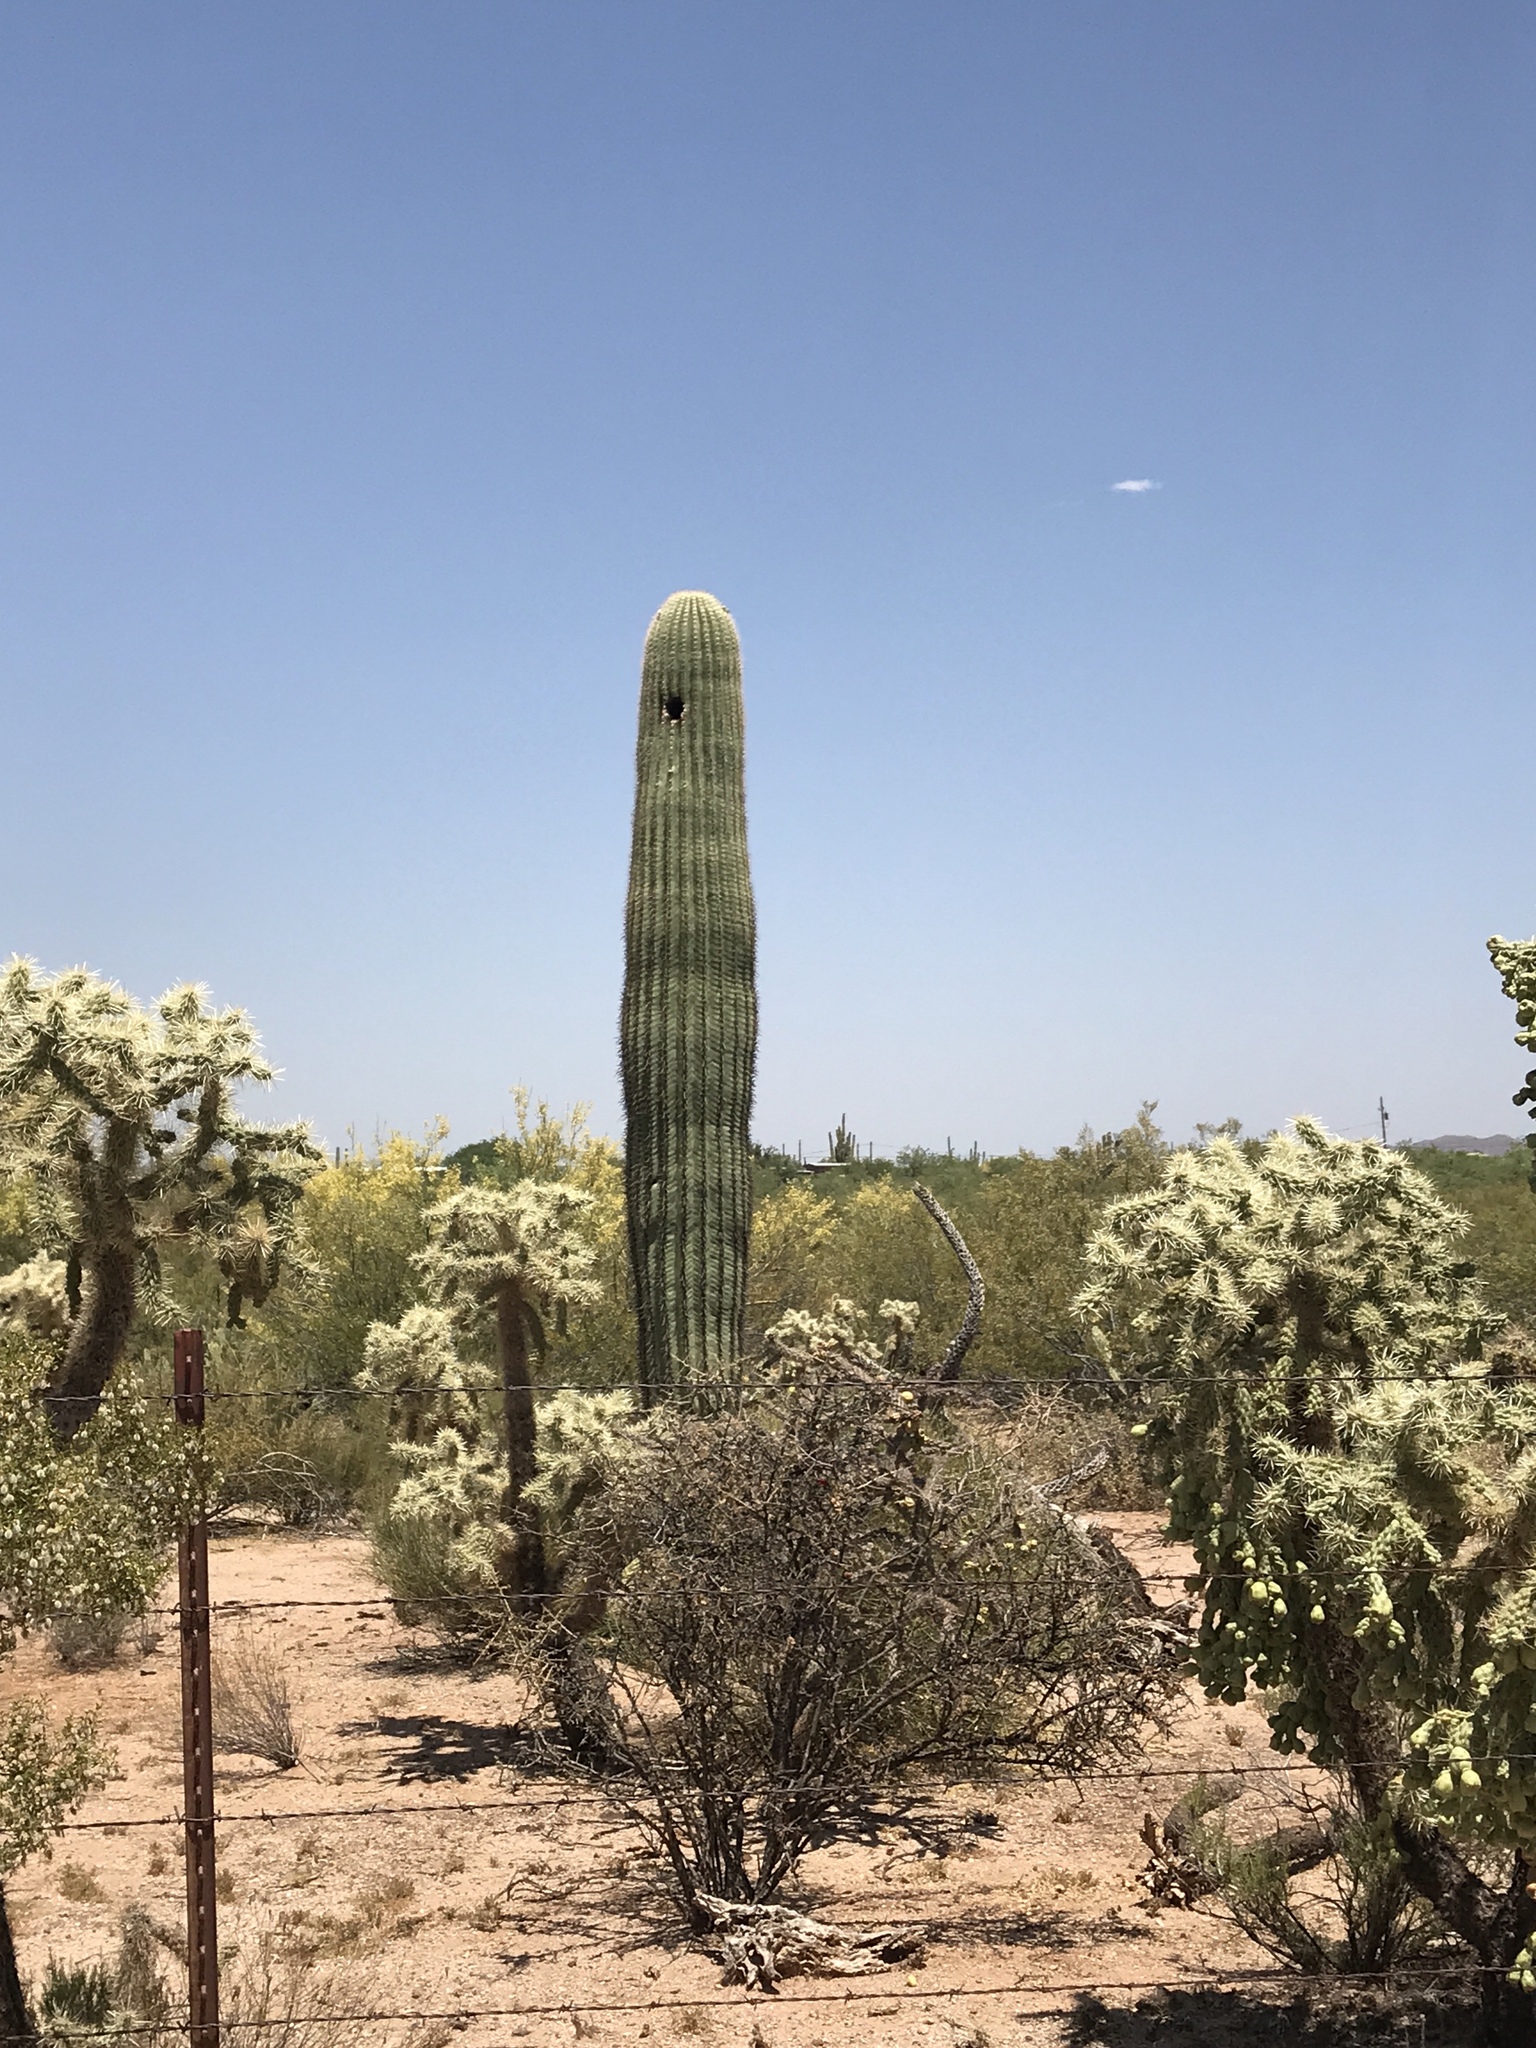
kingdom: Plantae
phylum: Tracheophyta
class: Magnoliopsida
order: Caryophyllales
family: Cactaceae
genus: Carnegiea
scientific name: Carnegiea gigantea
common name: Saguaro
